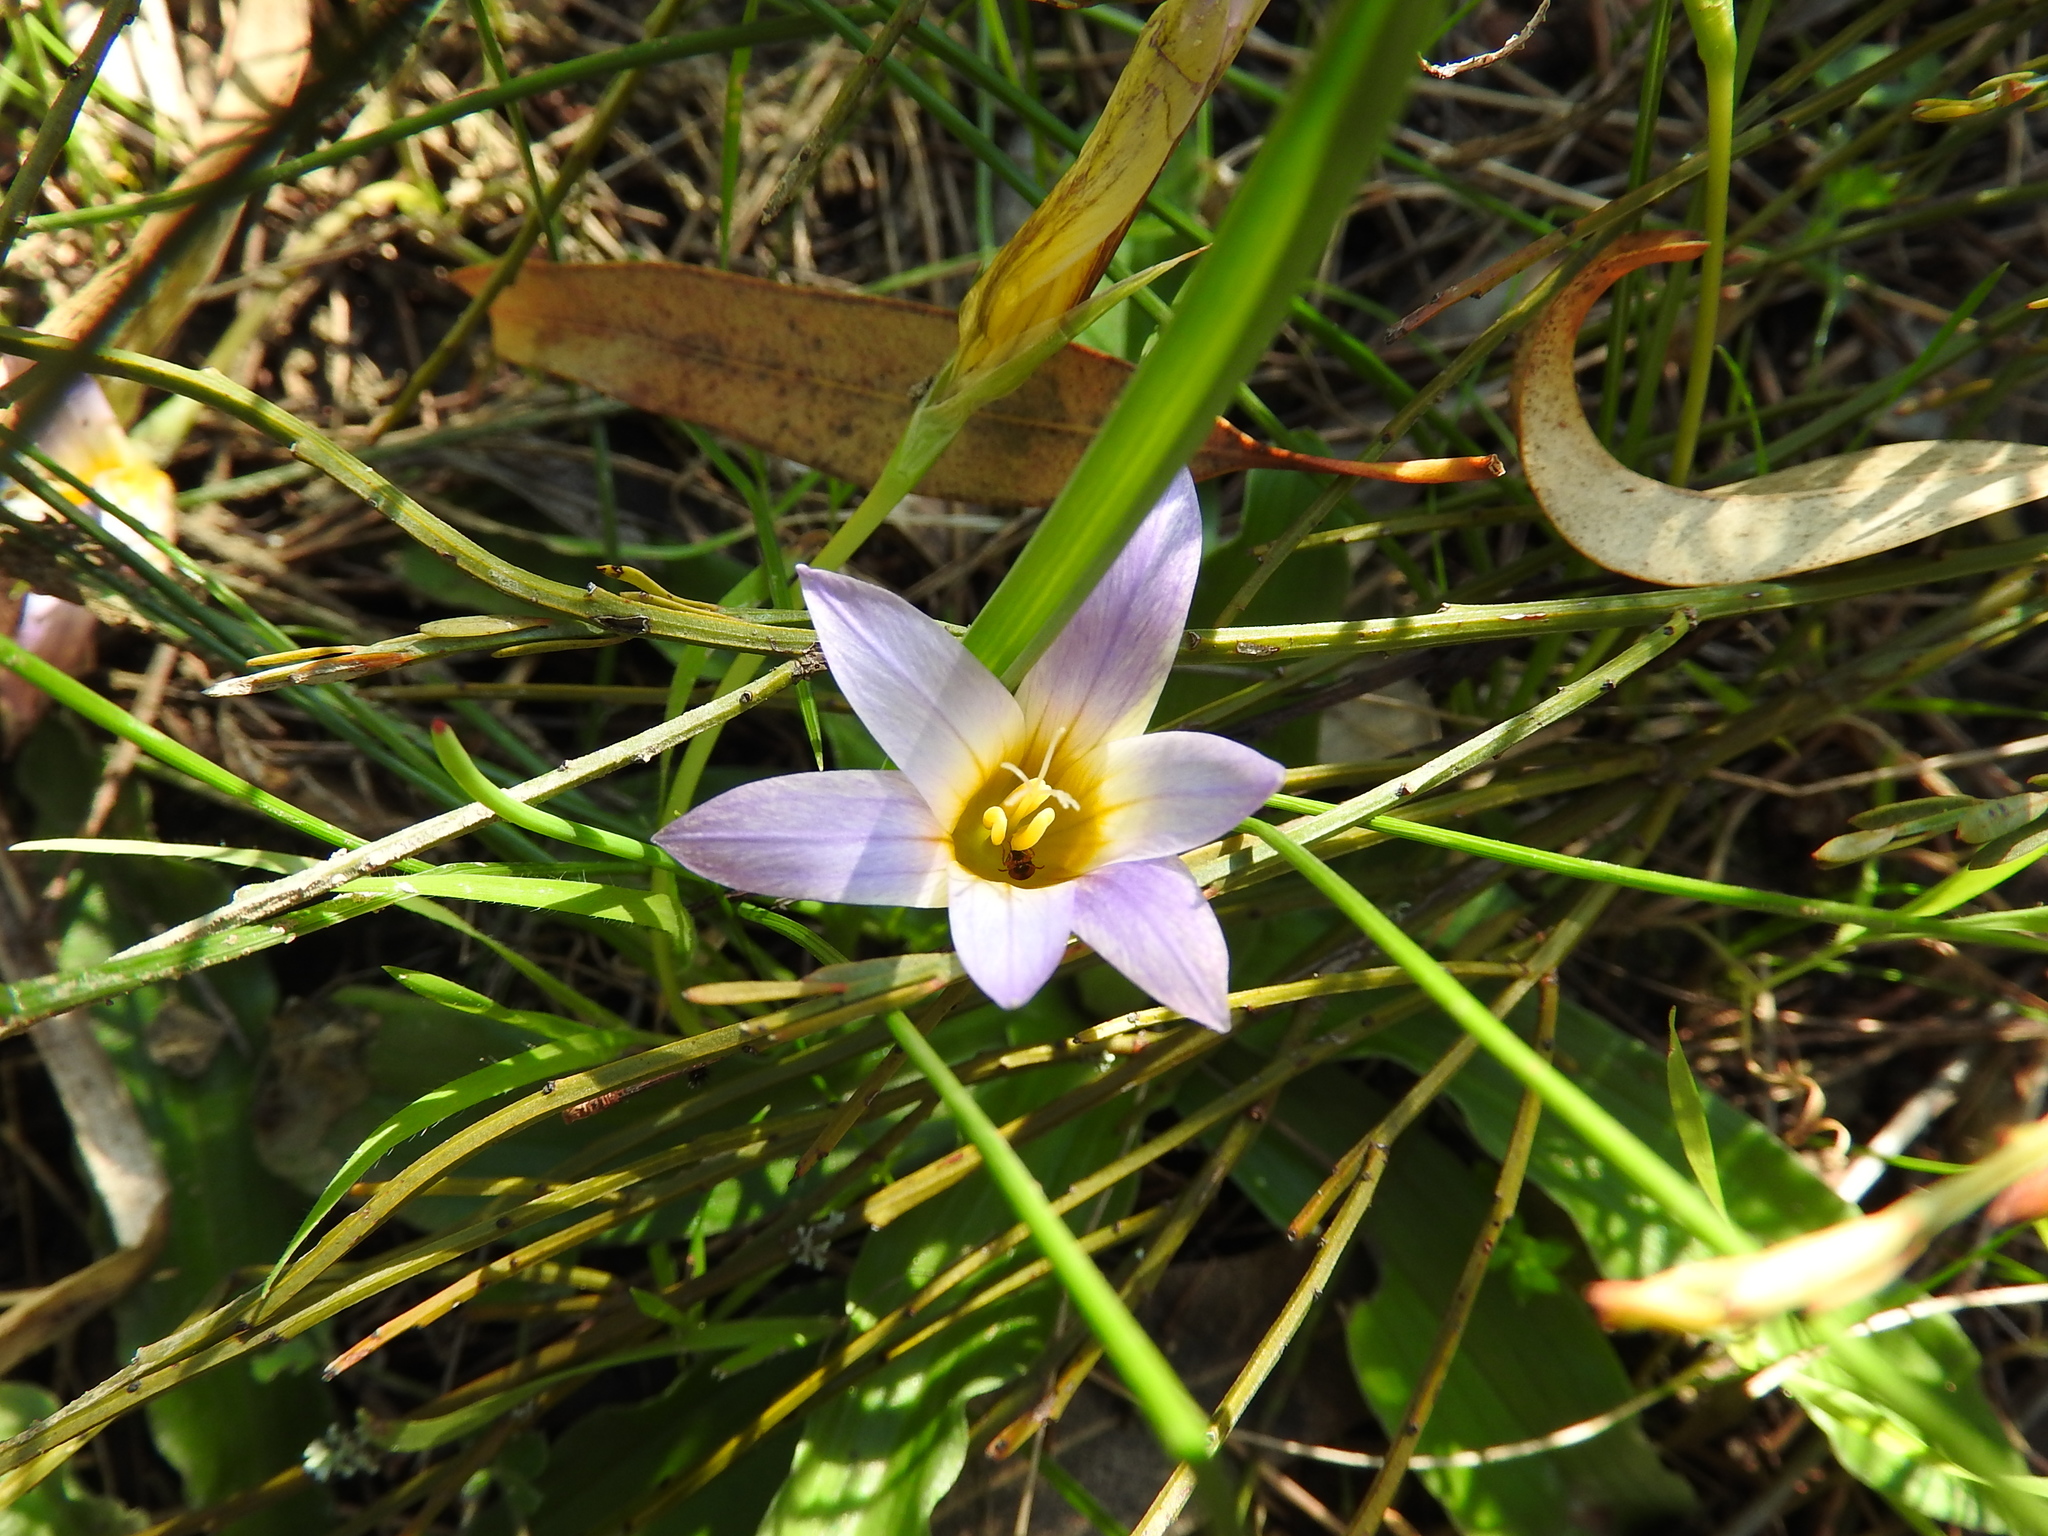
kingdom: Plantae
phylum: Tracheophyta
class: Liliopsida
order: Asparagales
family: Iridaceae
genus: Romulea
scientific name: Romulea bulbocodium
